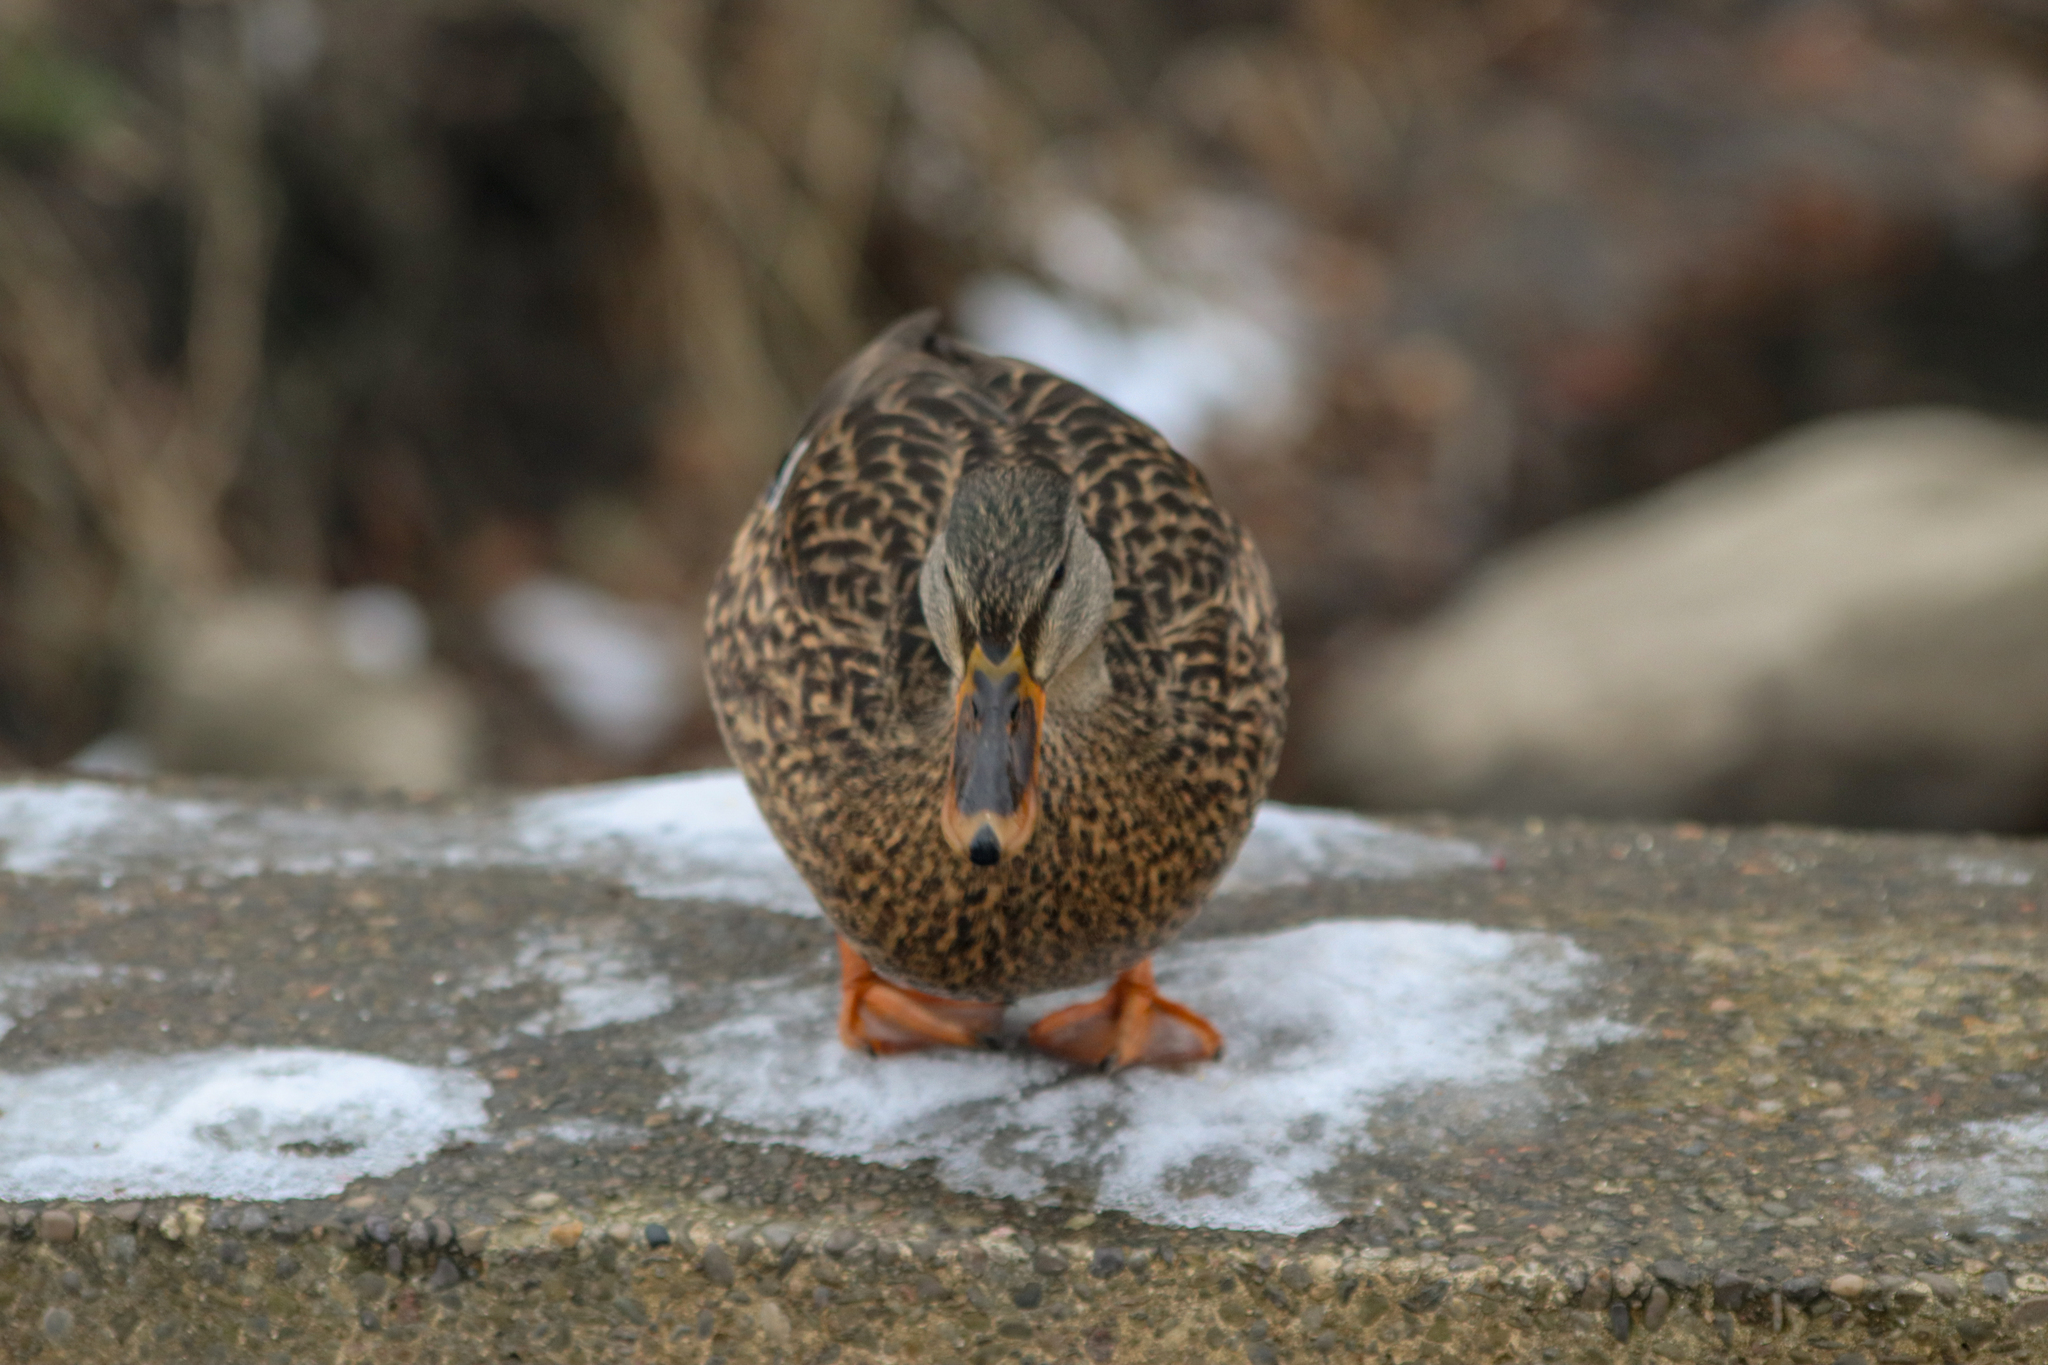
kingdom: Animalia
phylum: Chordata
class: Aves
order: Anseriformes
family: Anatidae
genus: Anas
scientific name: Anas platyrhynchos
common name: Mallard
